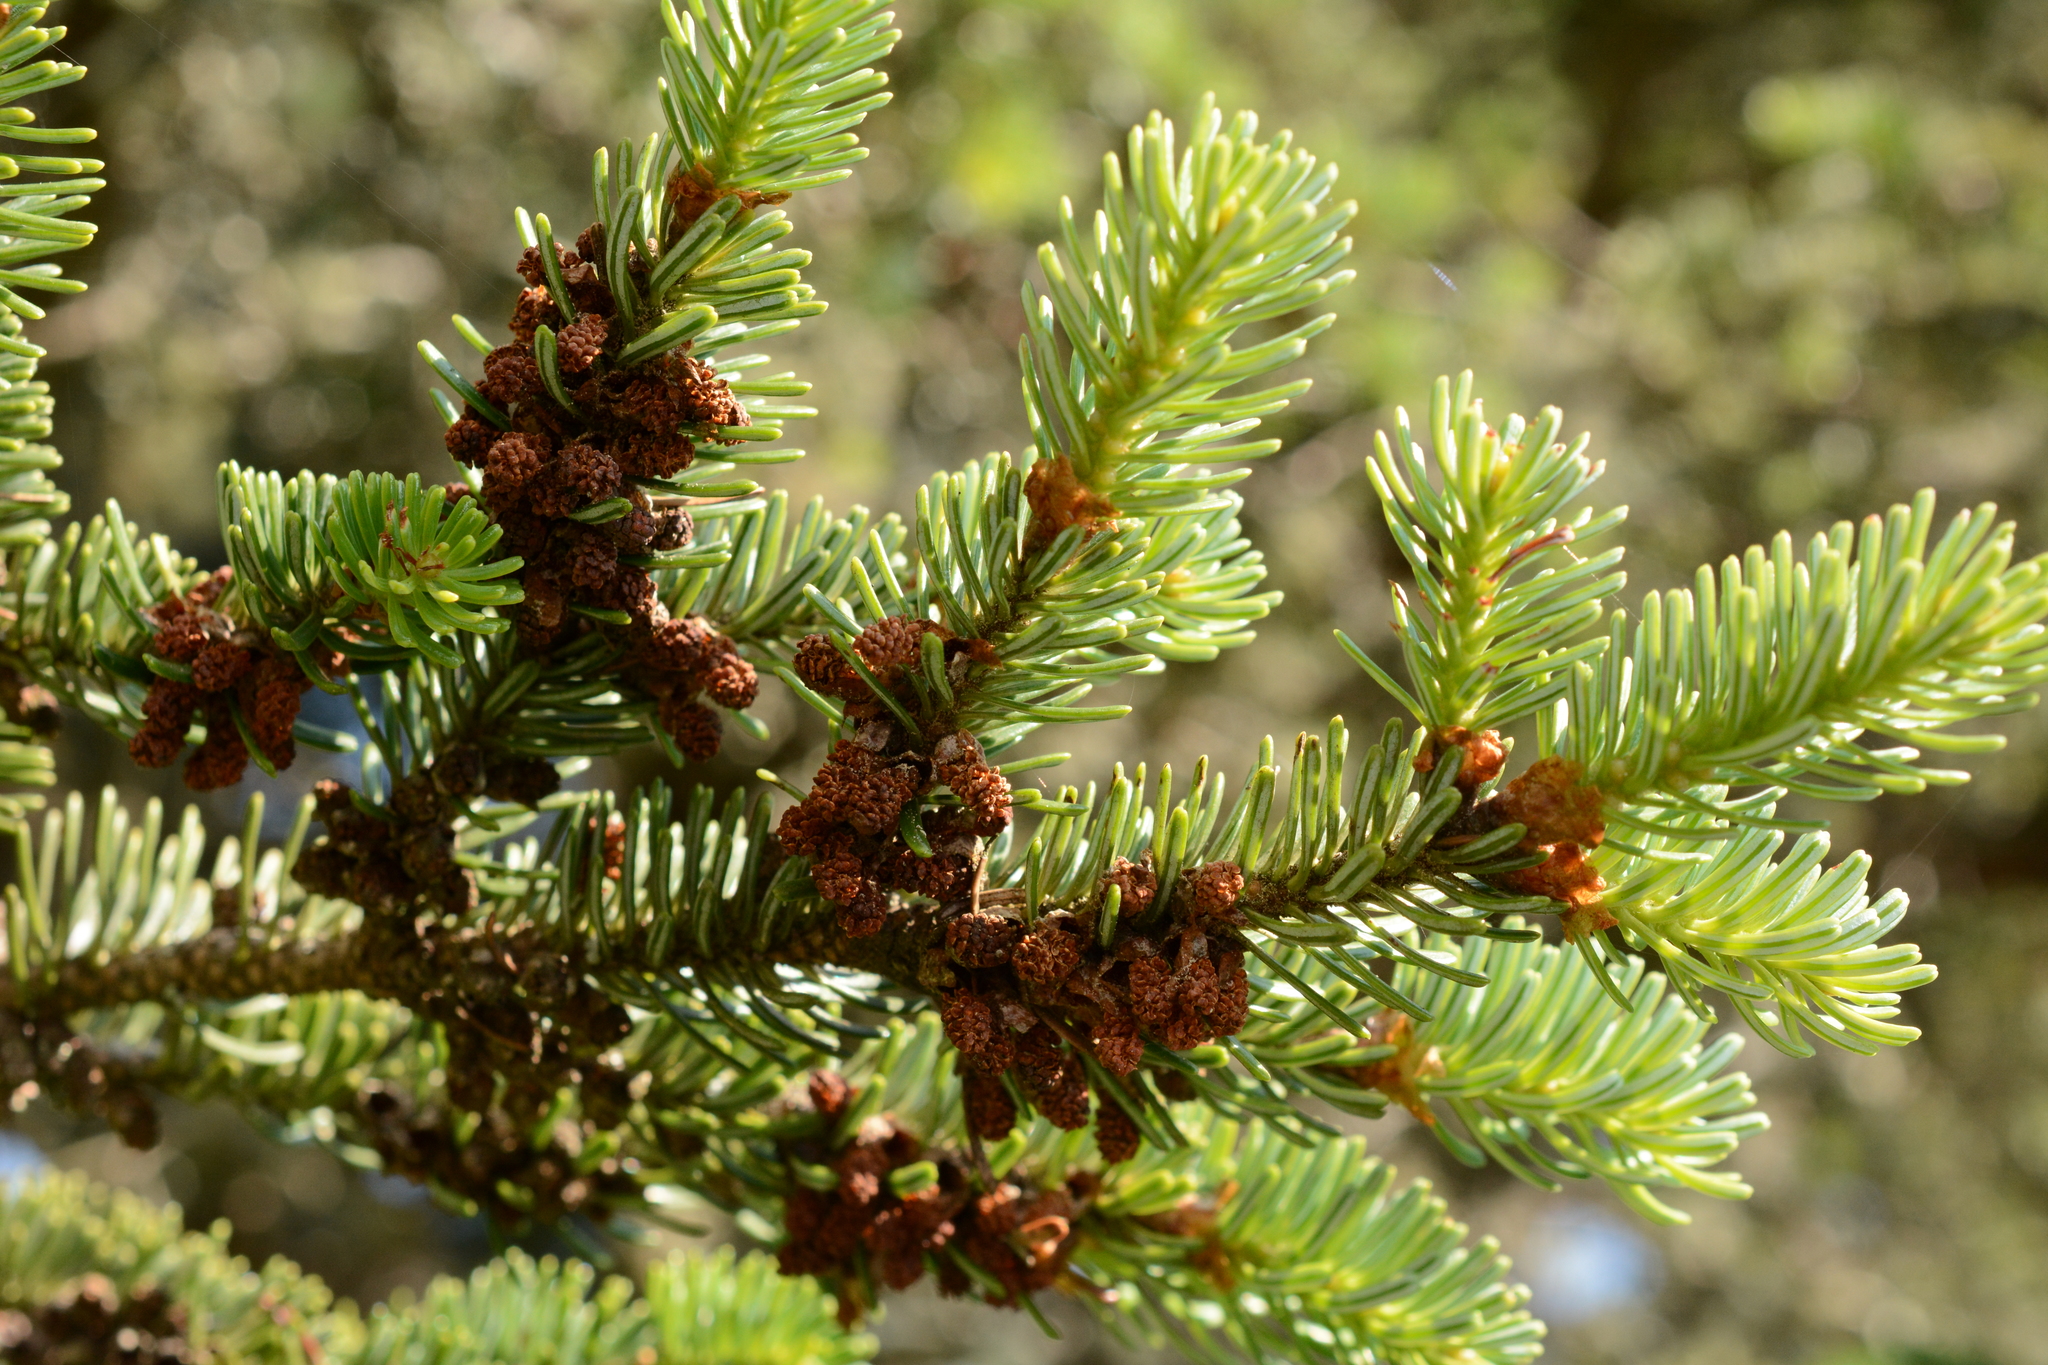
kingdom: Plantae
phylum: Tracheophyta
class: Pinopsida
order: Pinales
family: Pinaceae
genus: Abies
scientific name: Abies fraseri
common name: Fraser fir
